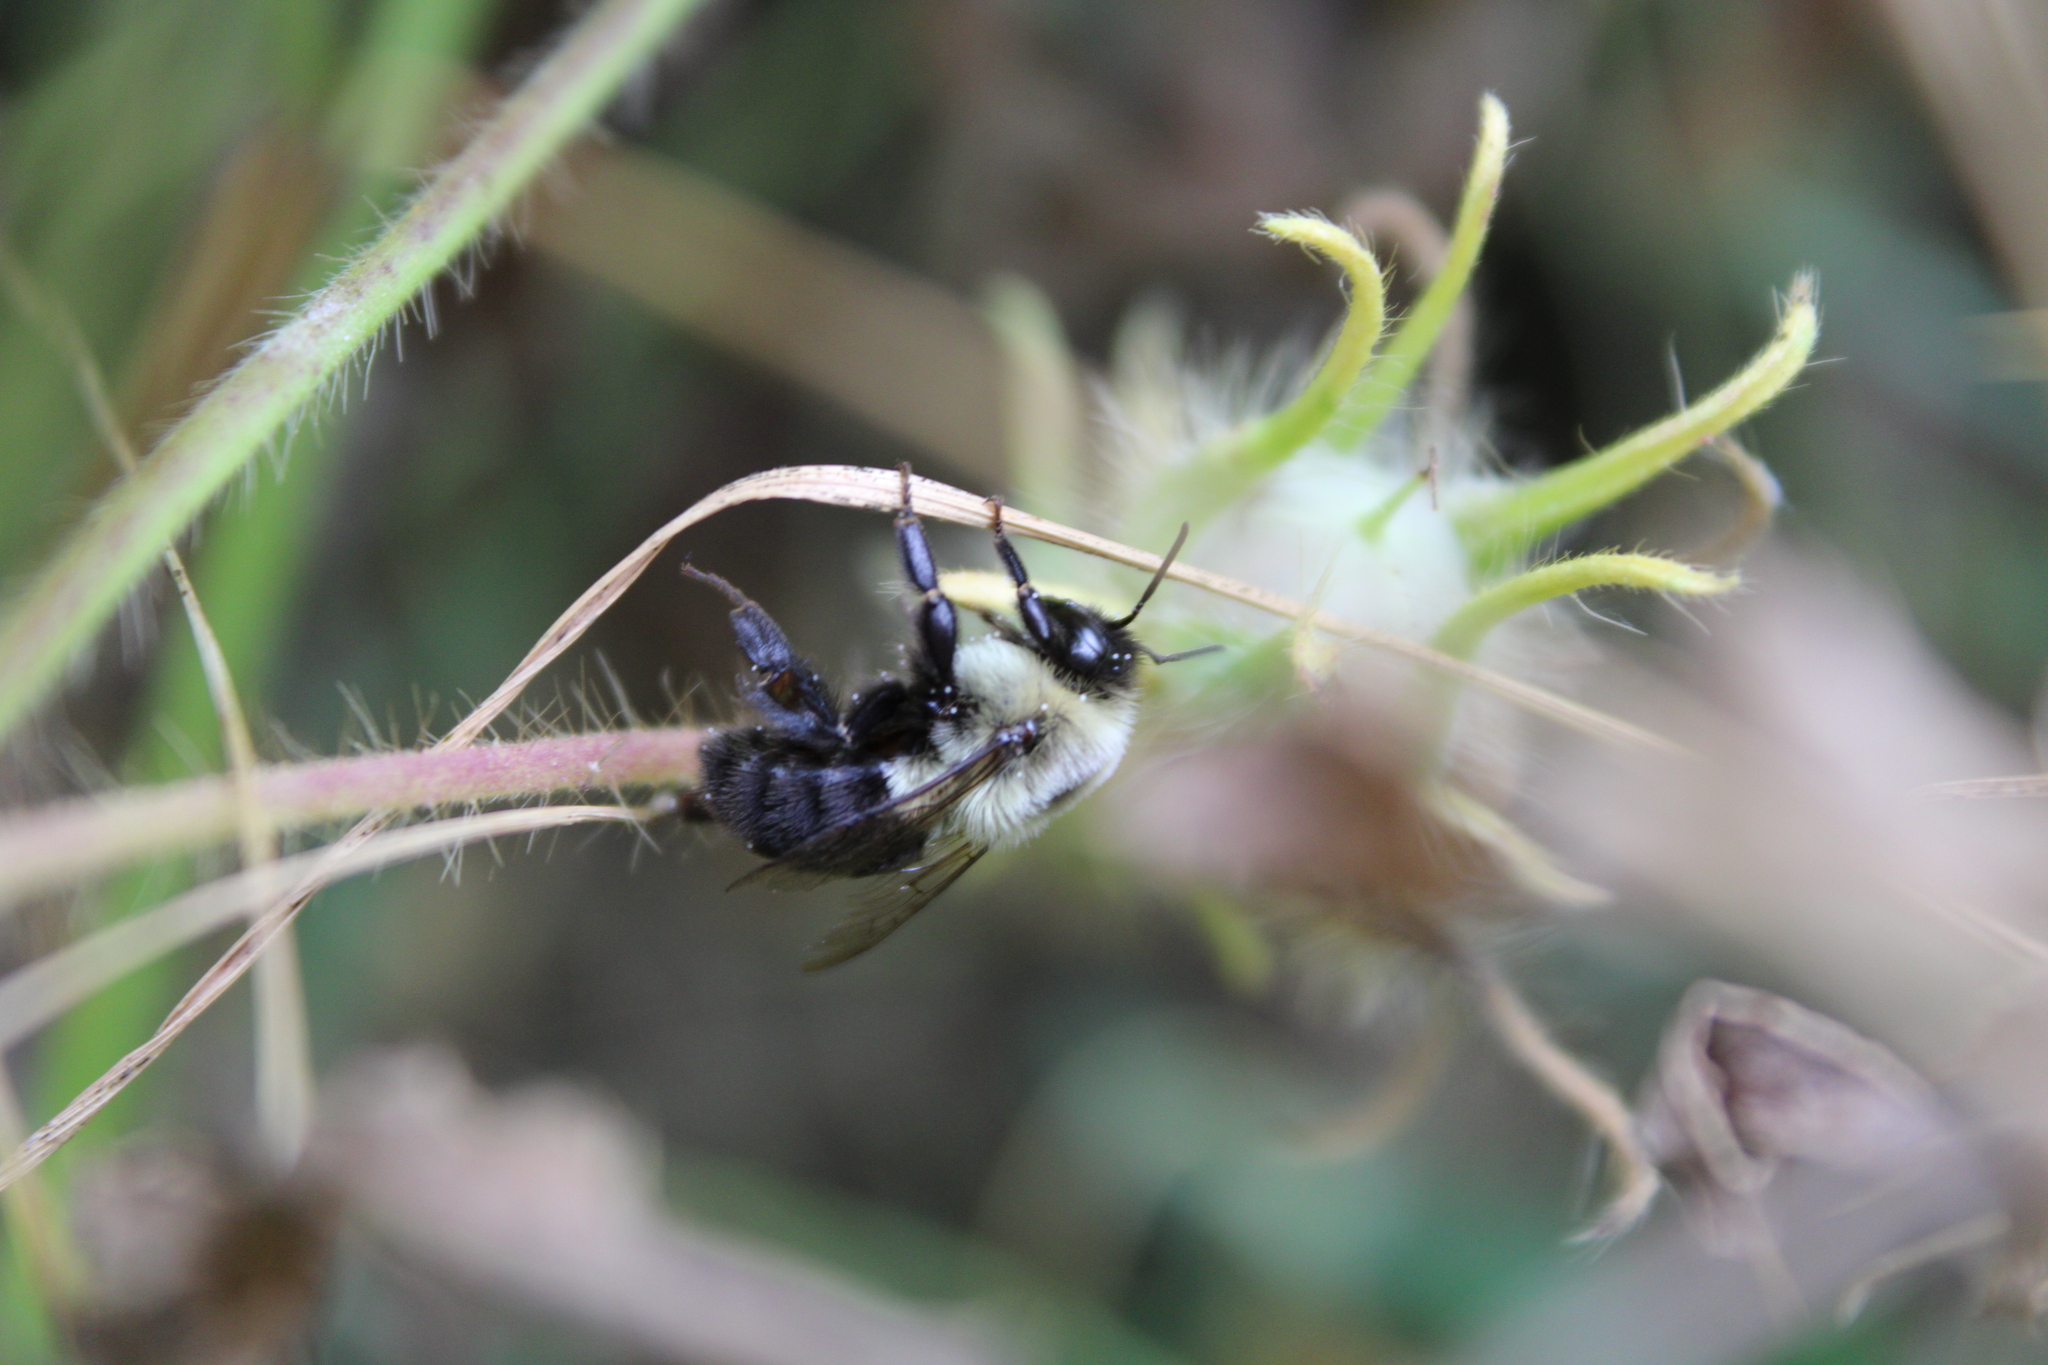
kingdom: Animalia
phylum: Arthropoda
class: Insecta
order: Hymenoptera
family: Apidae
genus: Bombus
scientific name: Bombus impatiens
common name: Common eastern bumble bee
